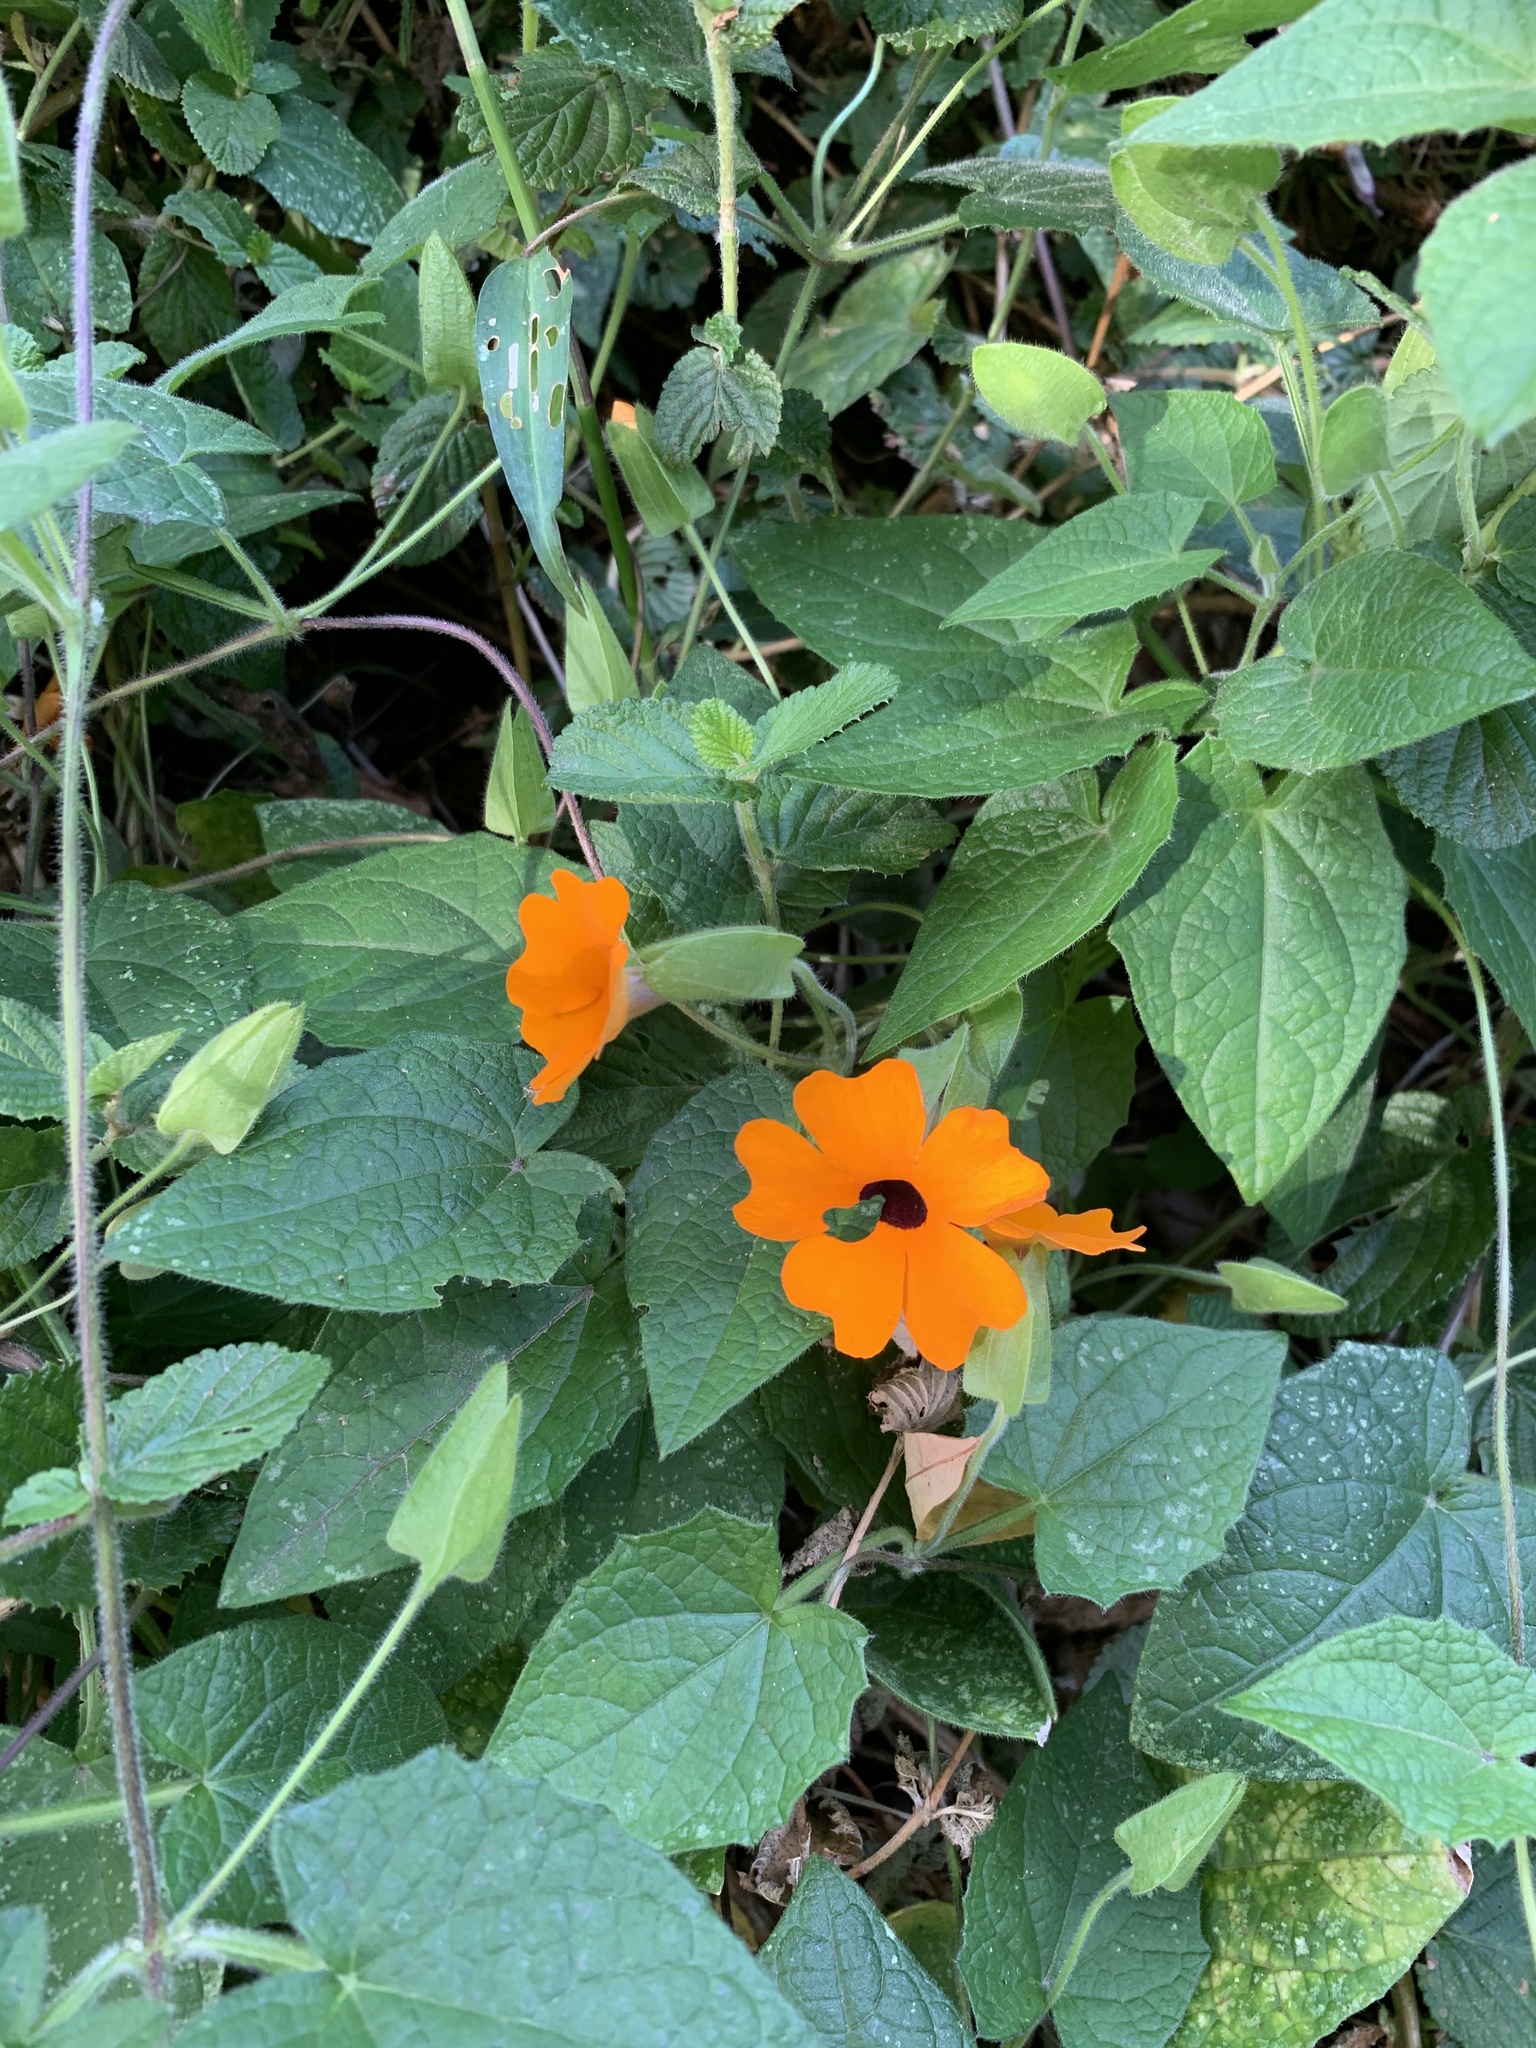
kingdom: Plantae
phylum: Tracheophyta
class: Magnoliopsida
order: Lamiales
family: Acanthaceae
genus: Thunbergia
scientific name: Thunbergia alata
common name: Blackeyed susan vine
